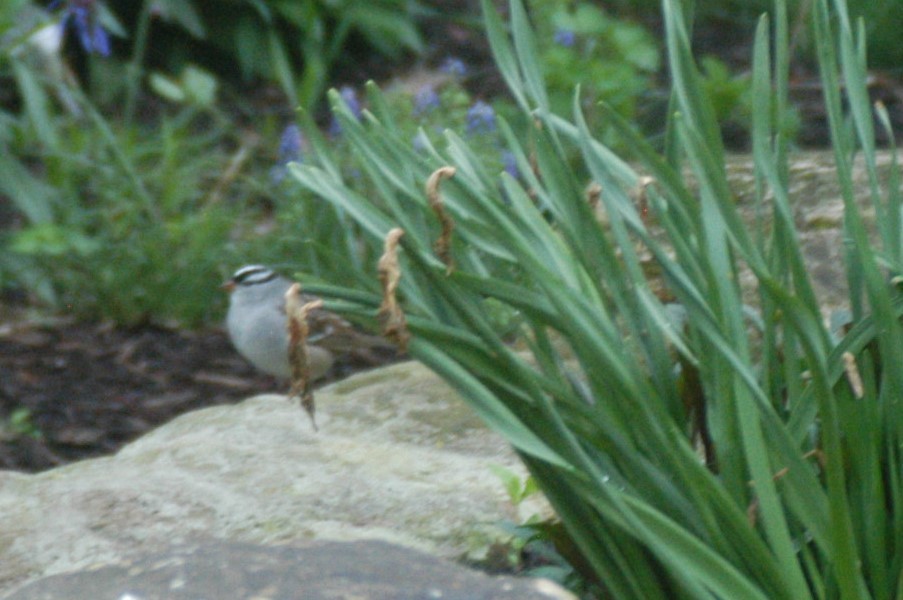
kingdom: Animalia
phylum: Chordata
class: Aves
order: Passeriformes
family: Passerellidae
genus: Zonotrichia
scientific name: Zonotrichia leucophrys
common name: White-crowned sparrow
